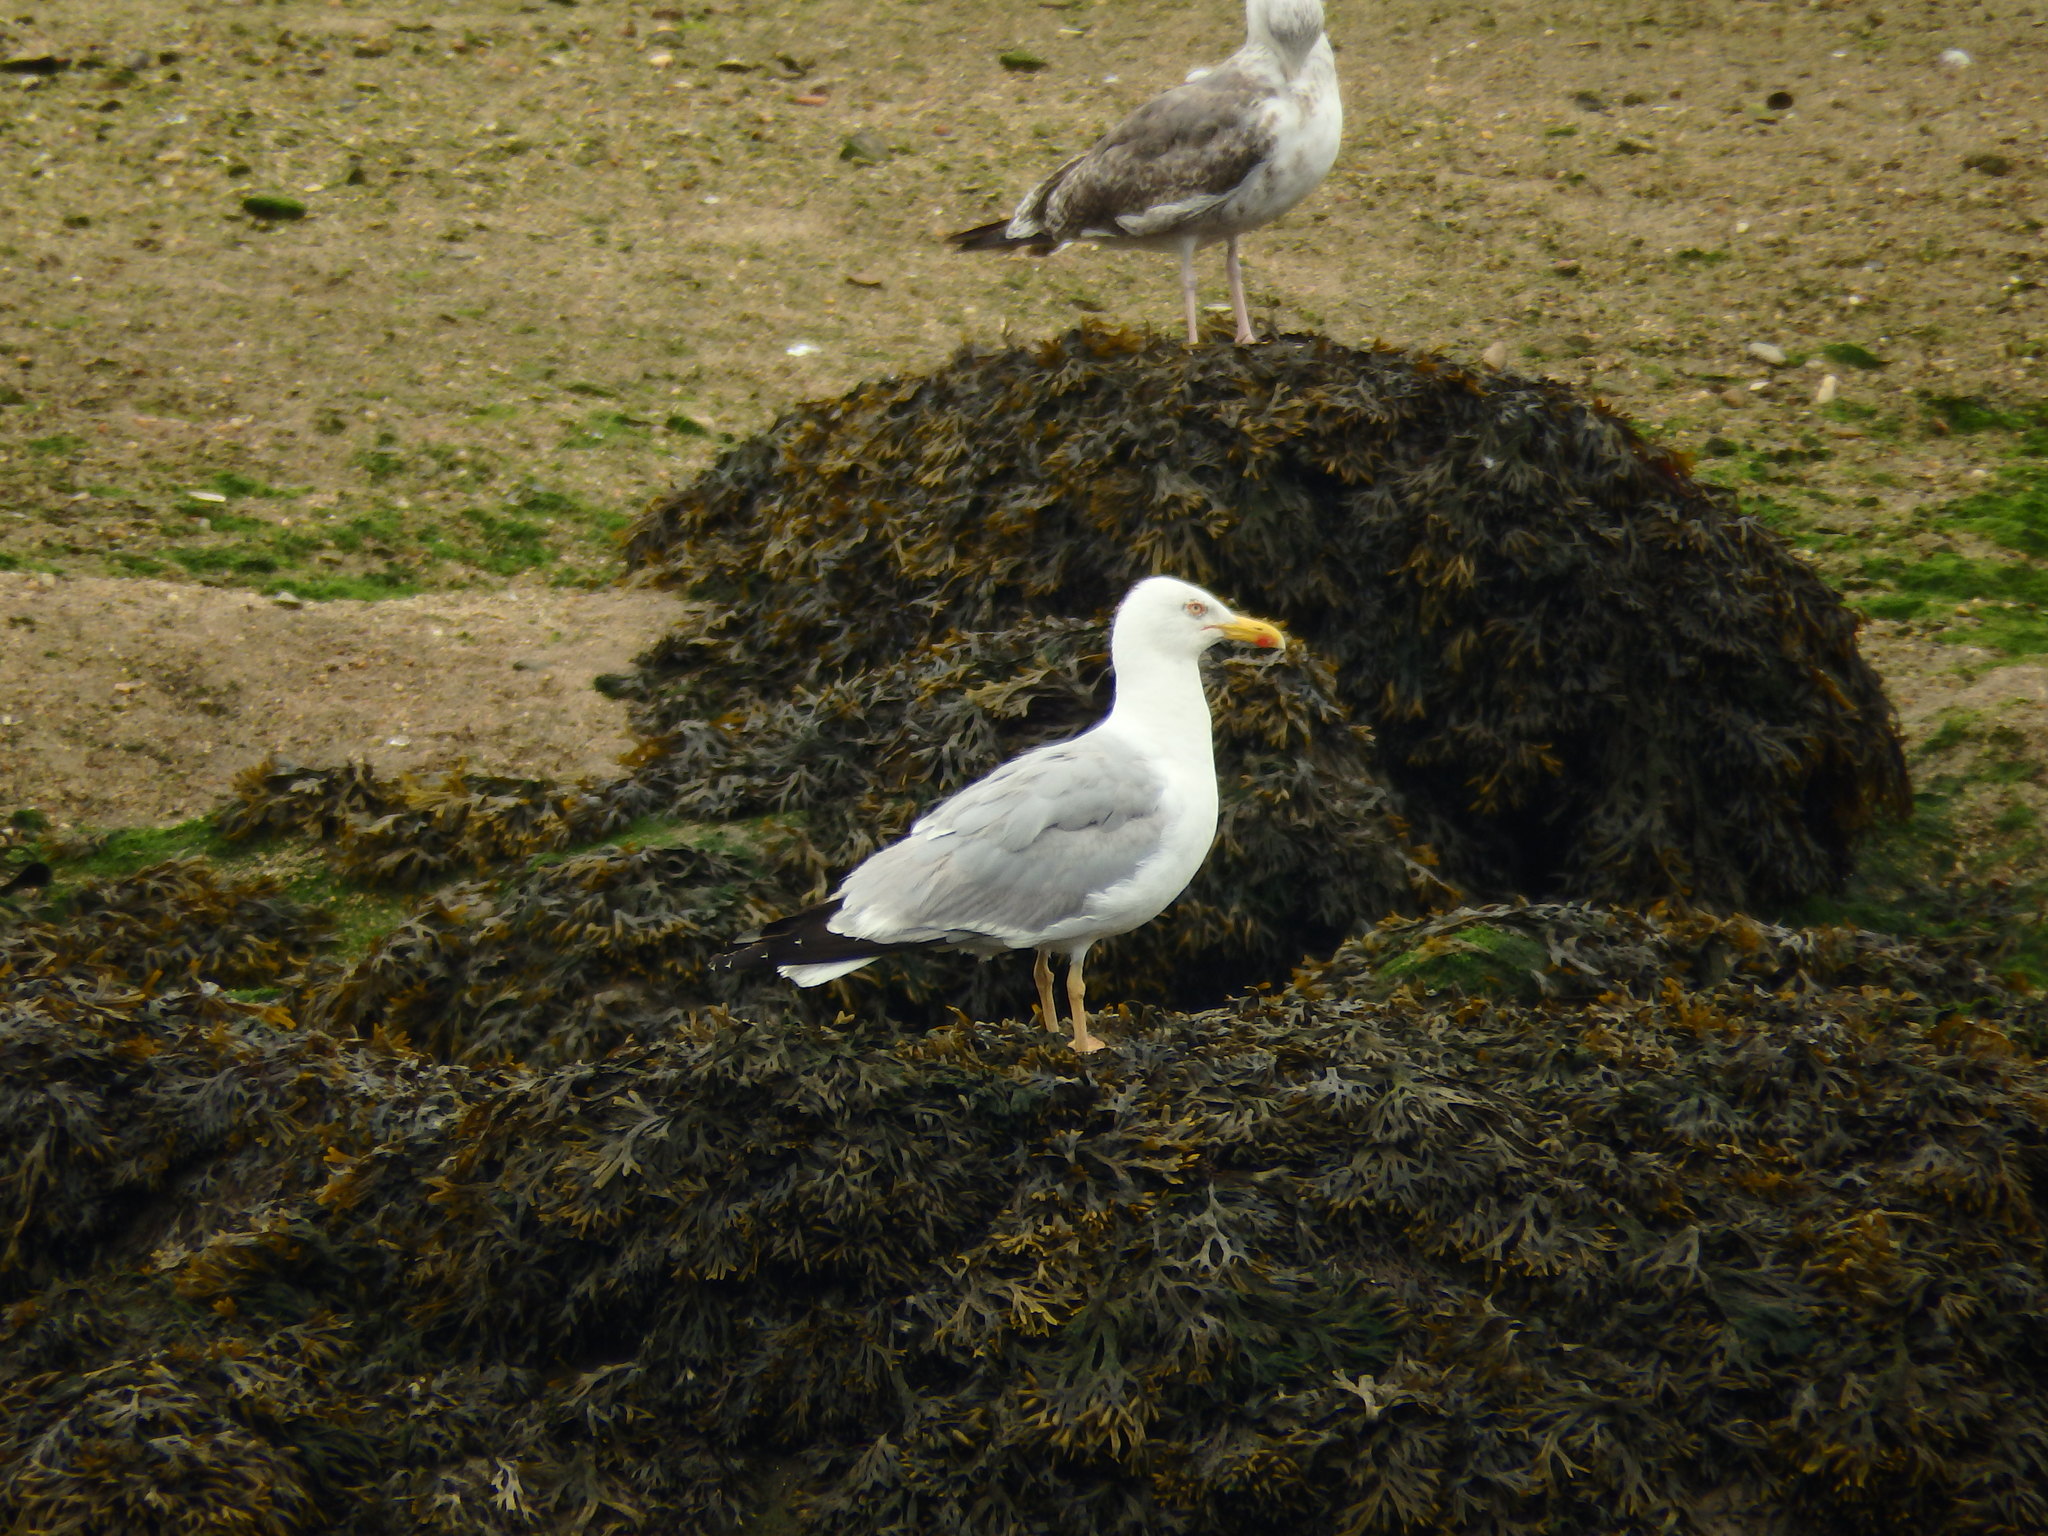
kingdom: Animalia
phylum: Chordata
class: Aves
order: Charadriiformes
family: Laridae
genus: Larus
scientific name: Larus michahellis
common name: Yellow-legged gull
